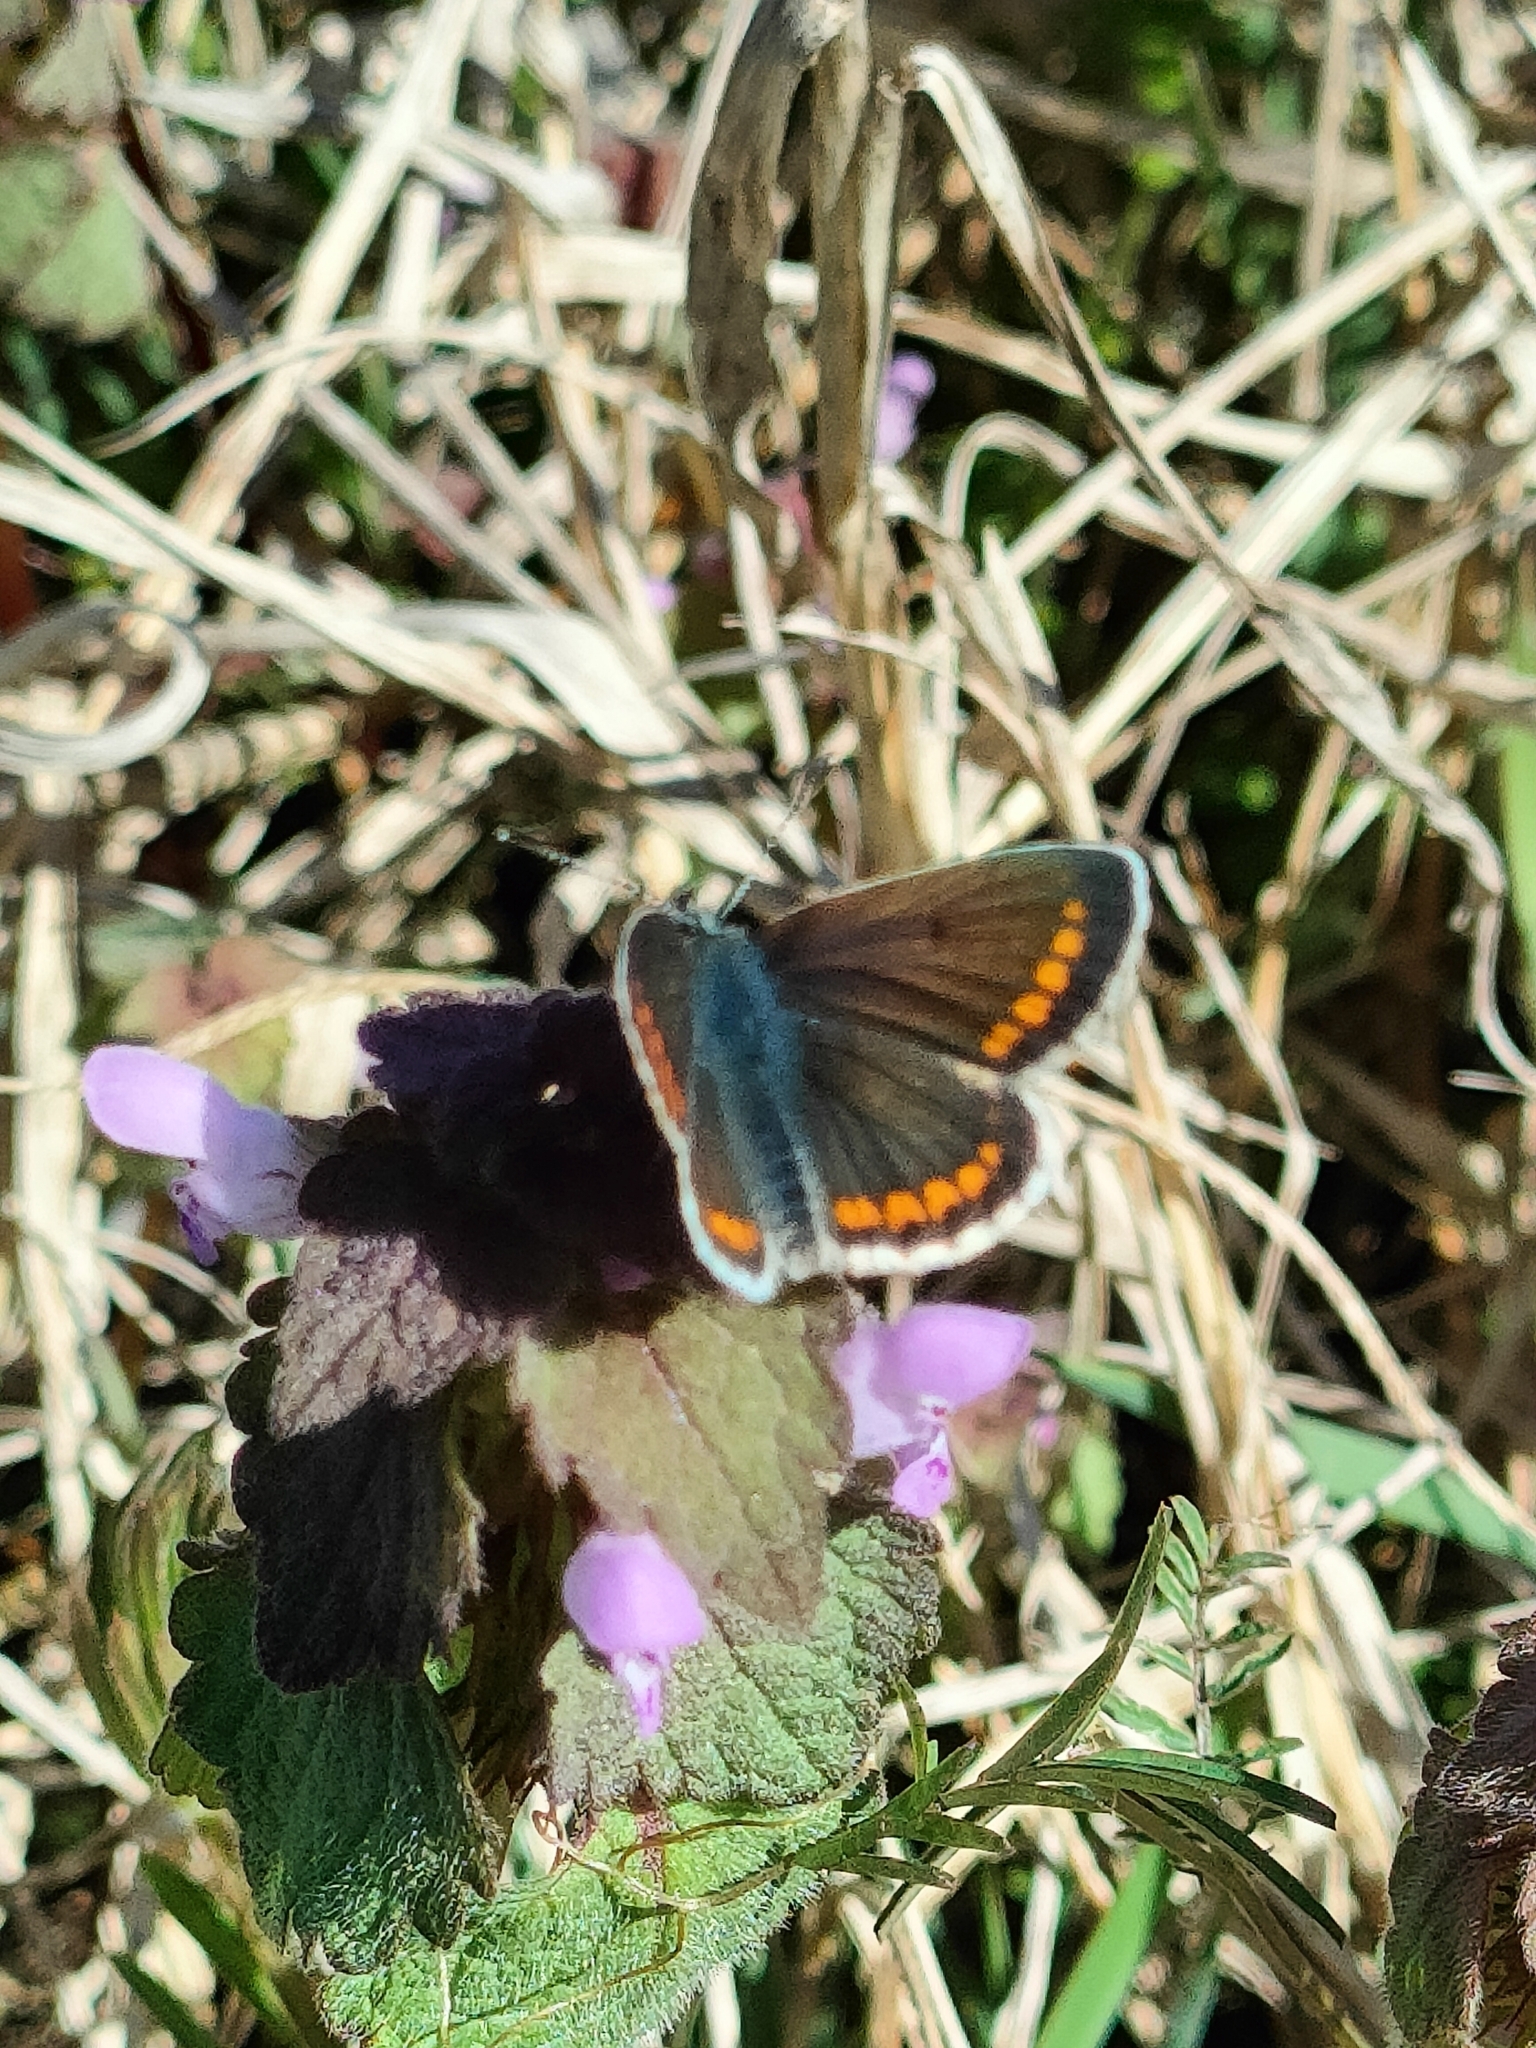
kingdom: Animalia
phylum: Arthropoda
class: Insecta
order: Lepidoptera
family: Lycaenidae
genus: Aricia
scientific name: Aricia agestis
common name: Brown argus
